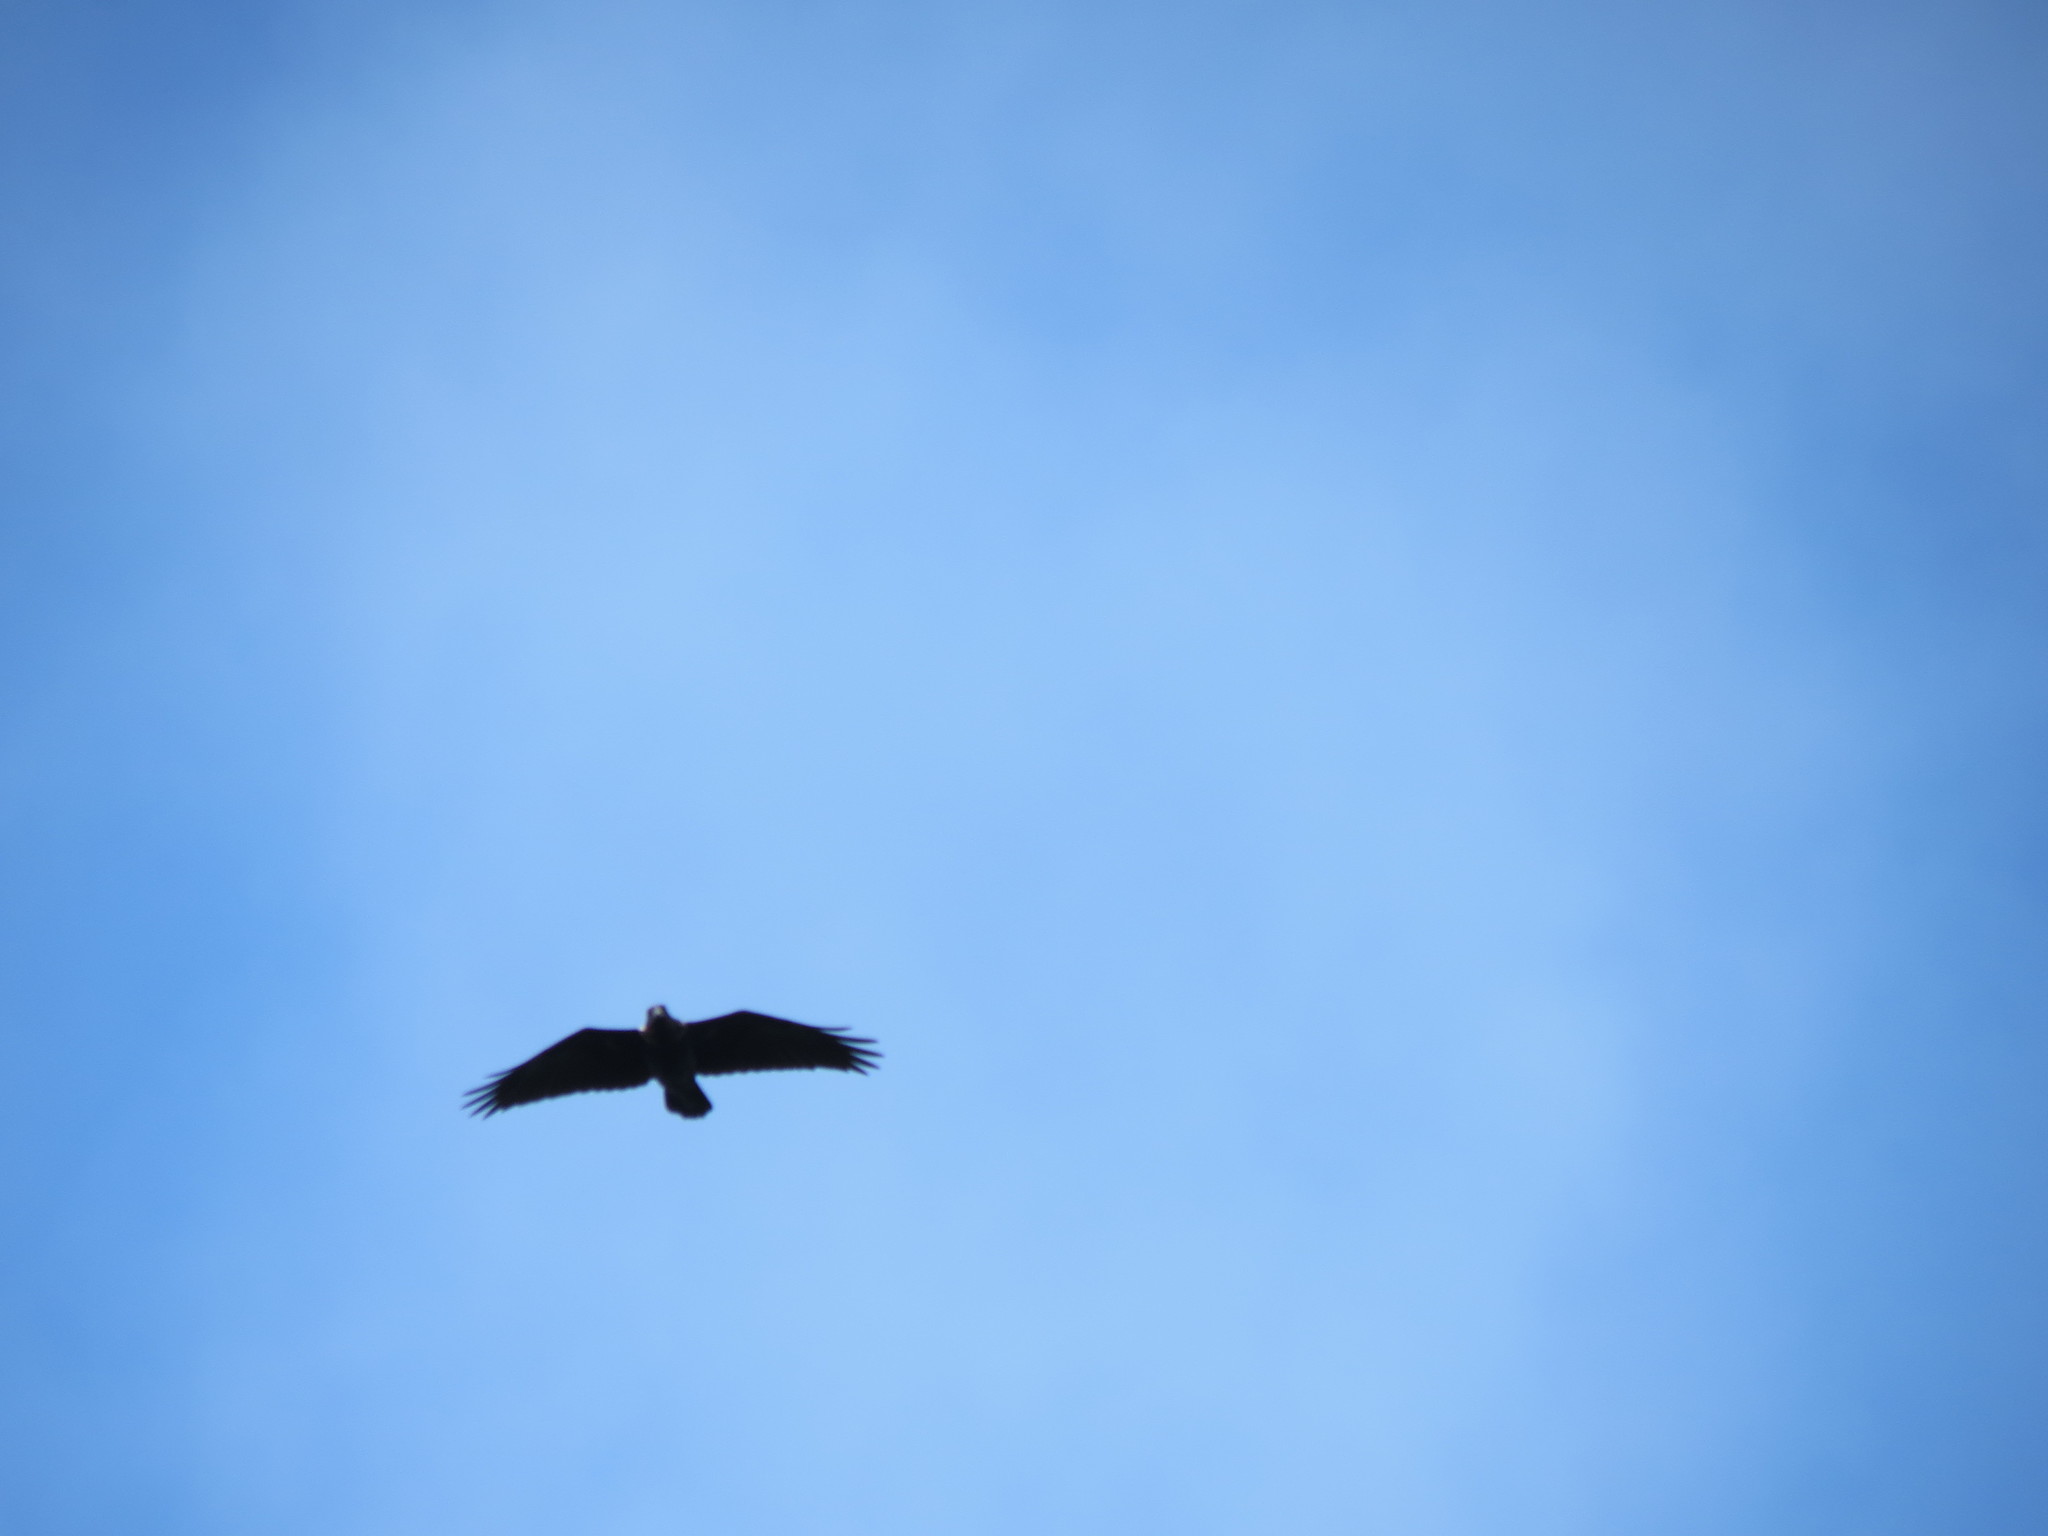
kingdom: Animalia
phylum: Chordata
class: Aves
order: Passeriformes
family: Corvidae
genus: Corvus
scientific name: Corvus albicollis
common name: White-necked raven
